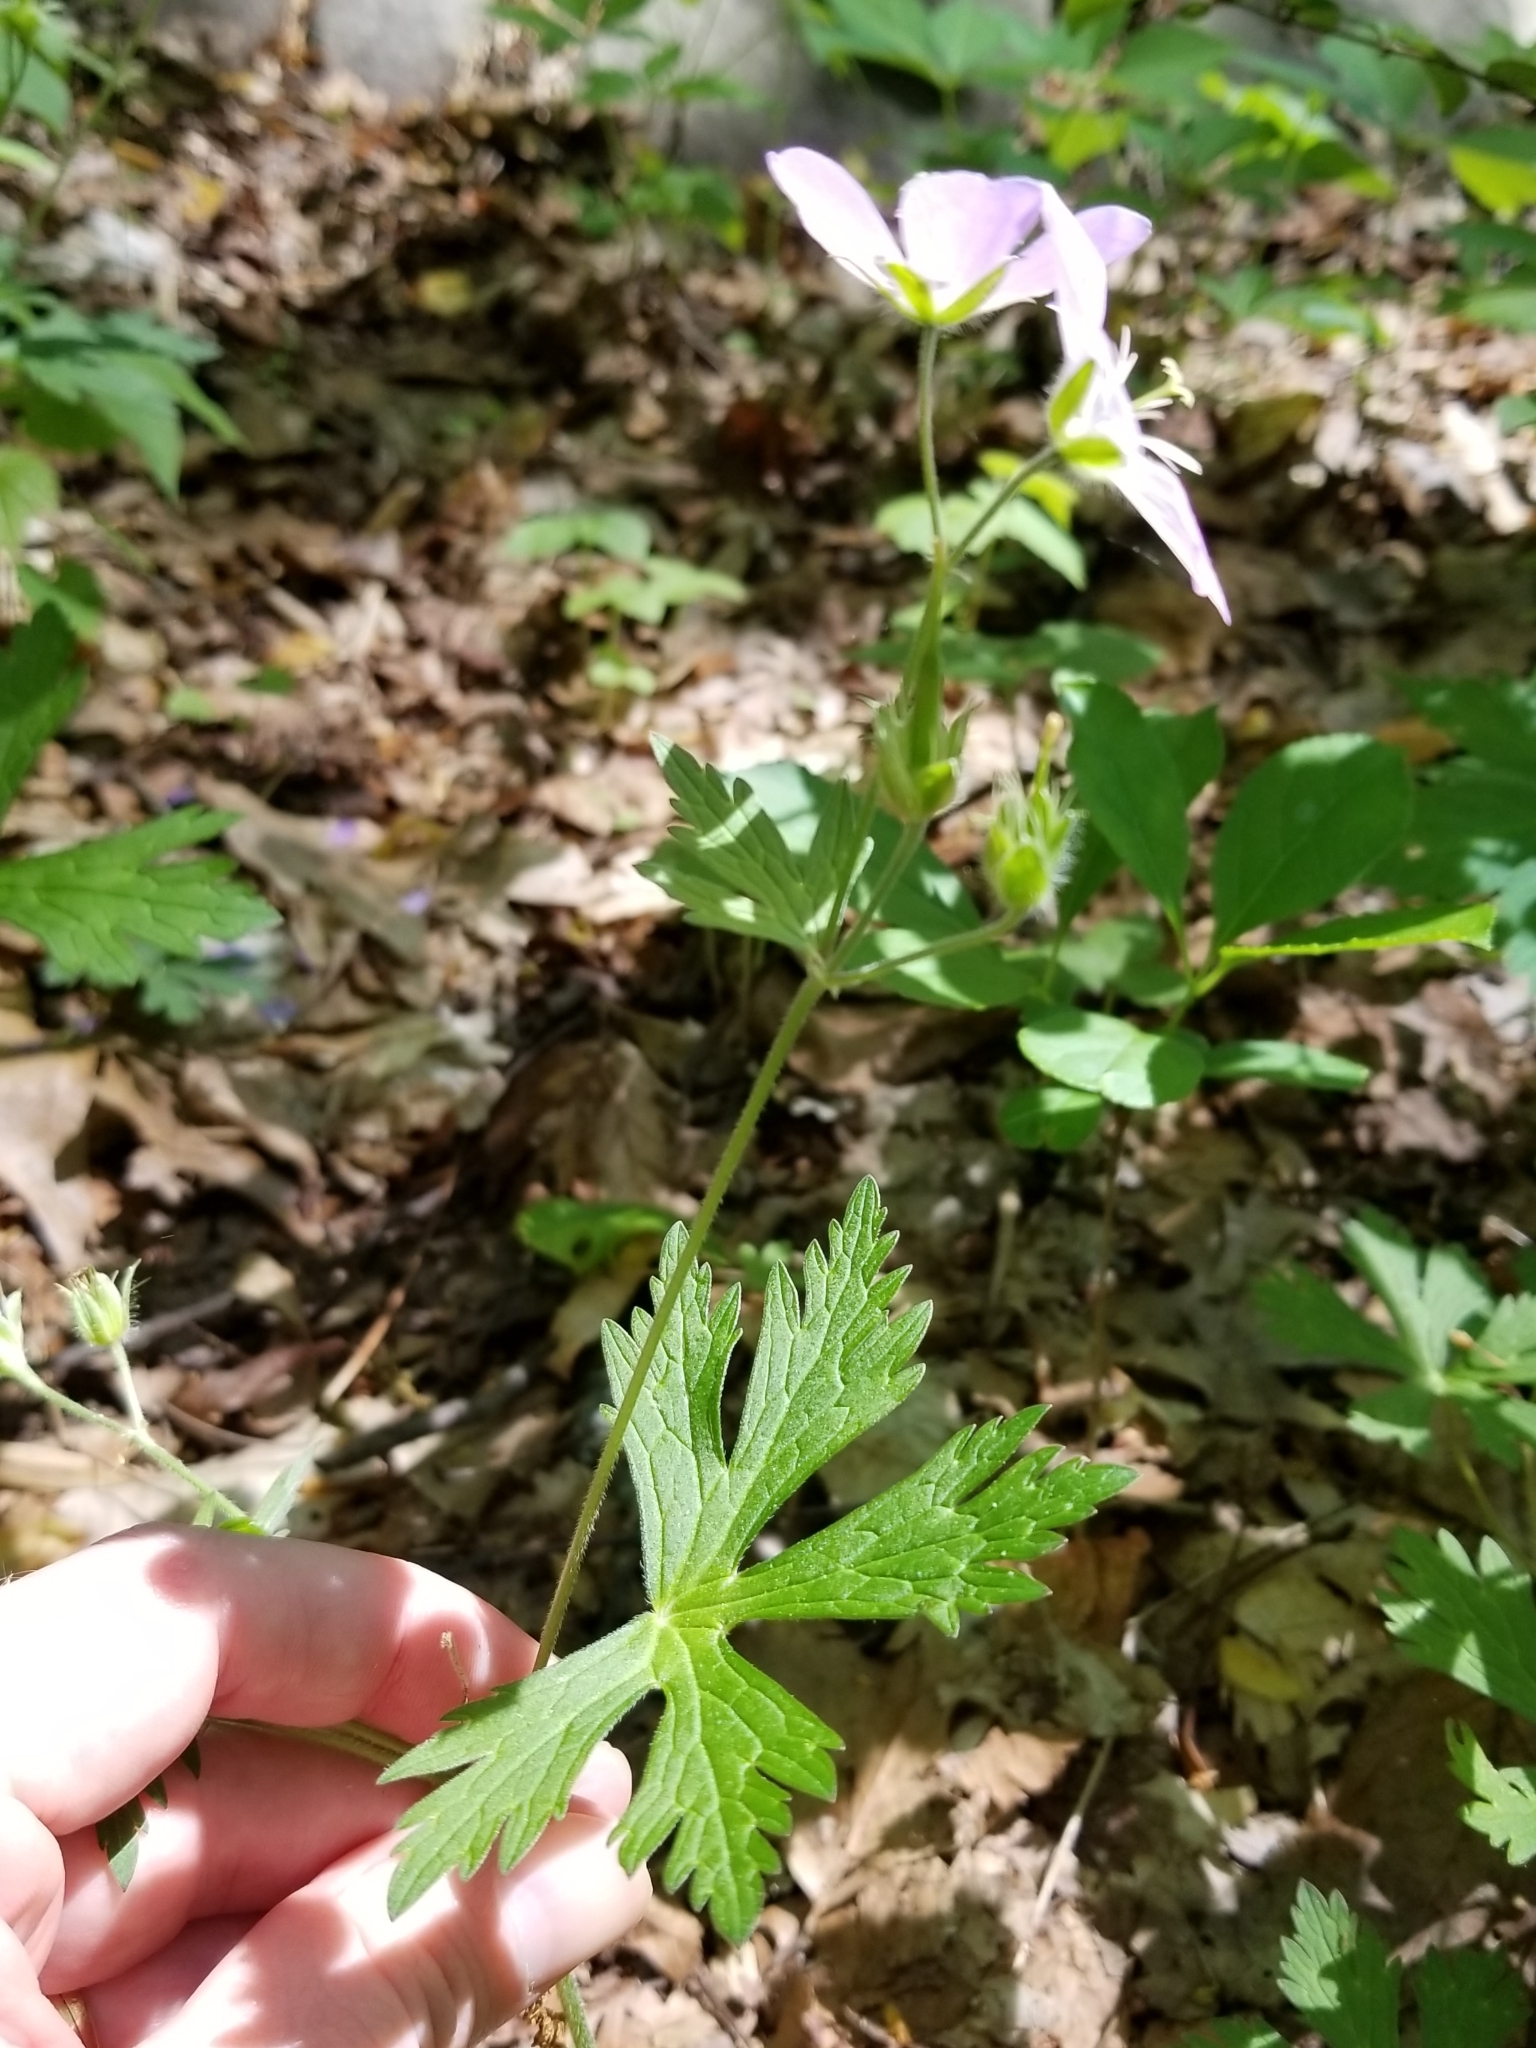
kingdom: Plantae
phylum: Tracheophyta
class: Magnoliopsida
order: Geraniales
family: Geraniaceae
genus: Geranium
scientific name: Geranium maculatum
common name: Spotted geranium
